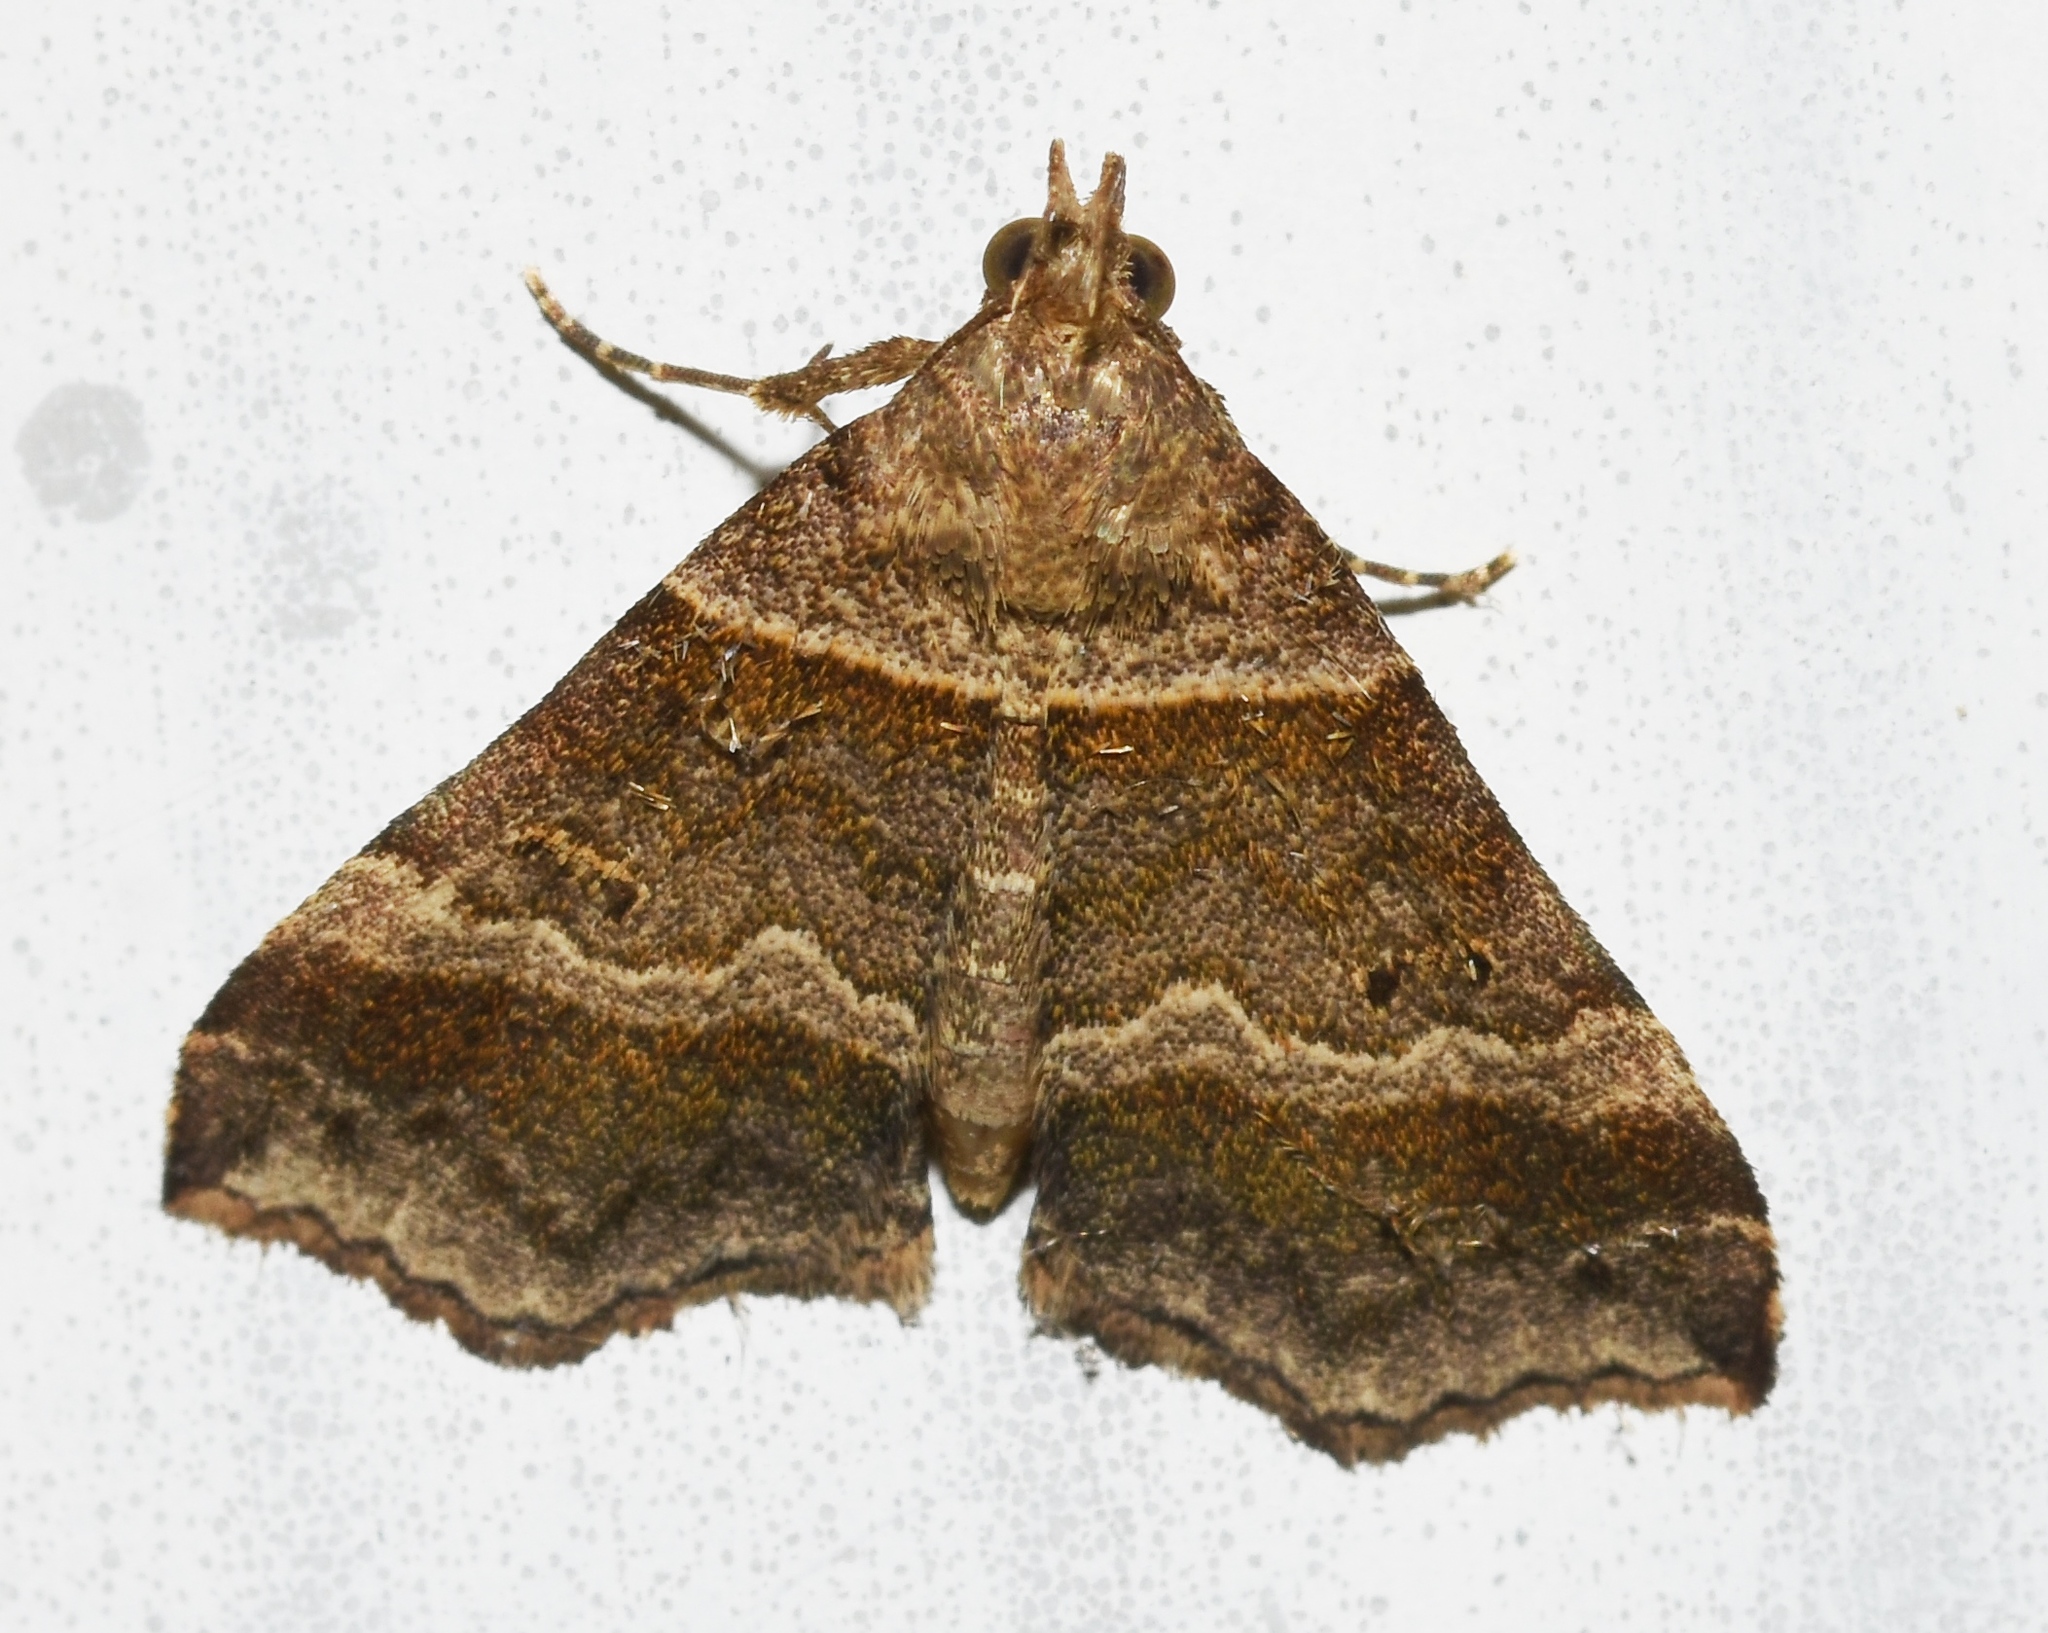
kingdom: Animalia
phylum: Arthropoda
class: Insecta
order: Lepidoptera
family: Erebidae
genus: Phaeolita
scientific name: Phaeolita pyramusalis
